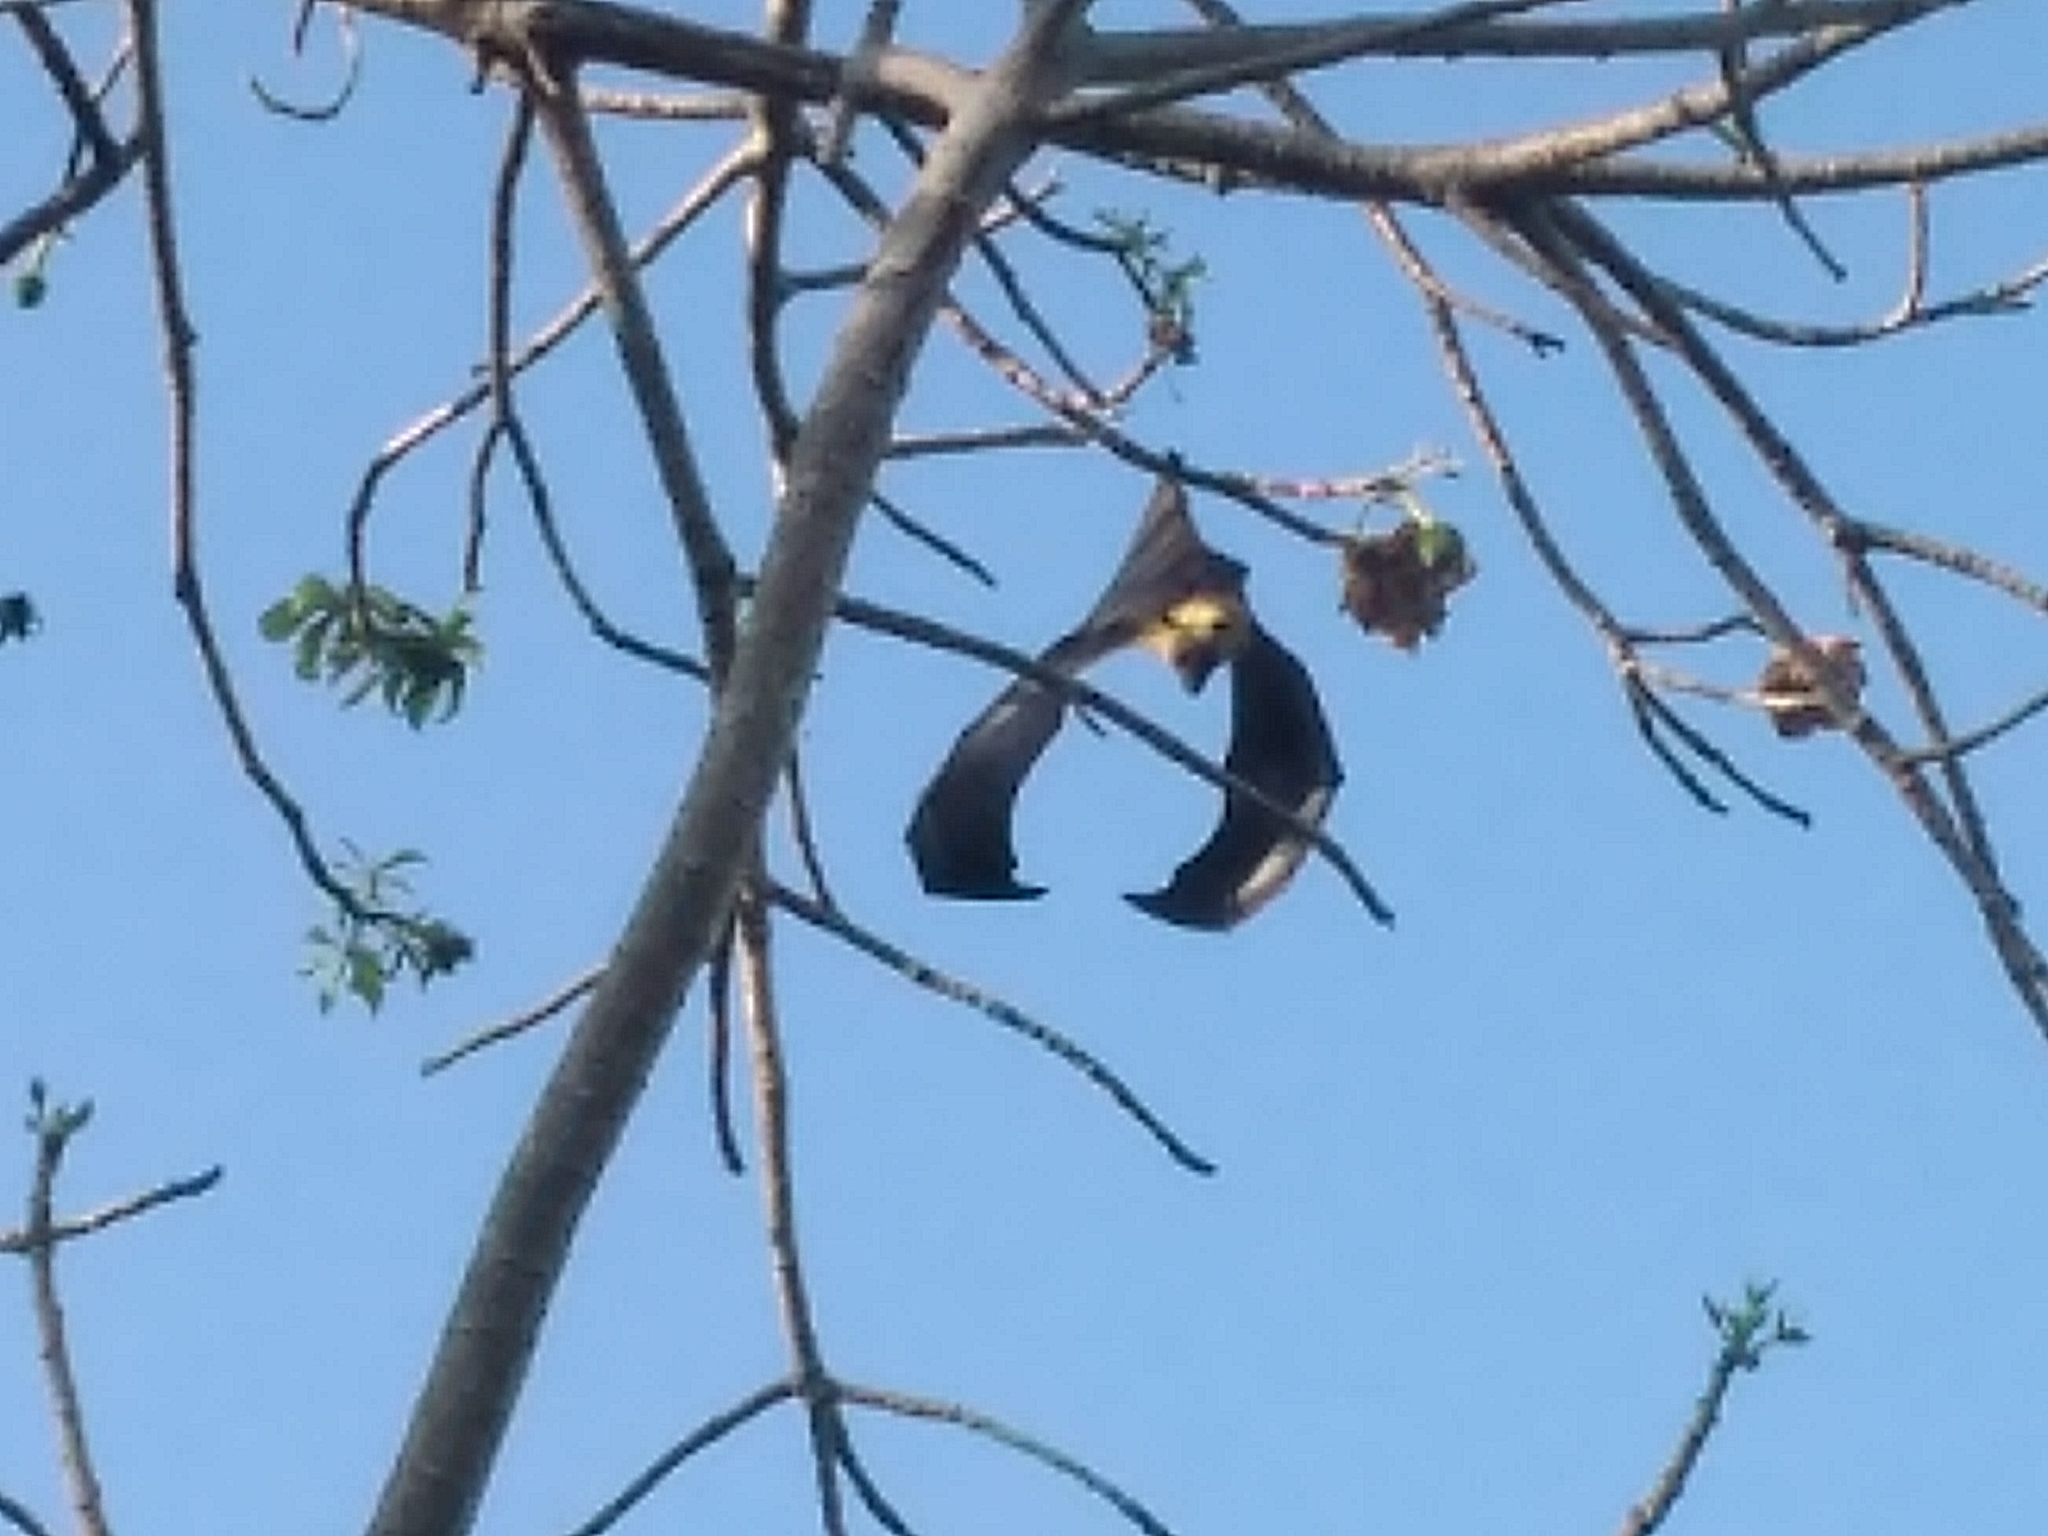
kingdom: Animalia
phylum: Chordata
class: Mammalia
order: Chiroptera
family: Pteropodidae
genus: Pteropus
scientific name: Pteropus seychellensis
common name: Seychelles flying fox
